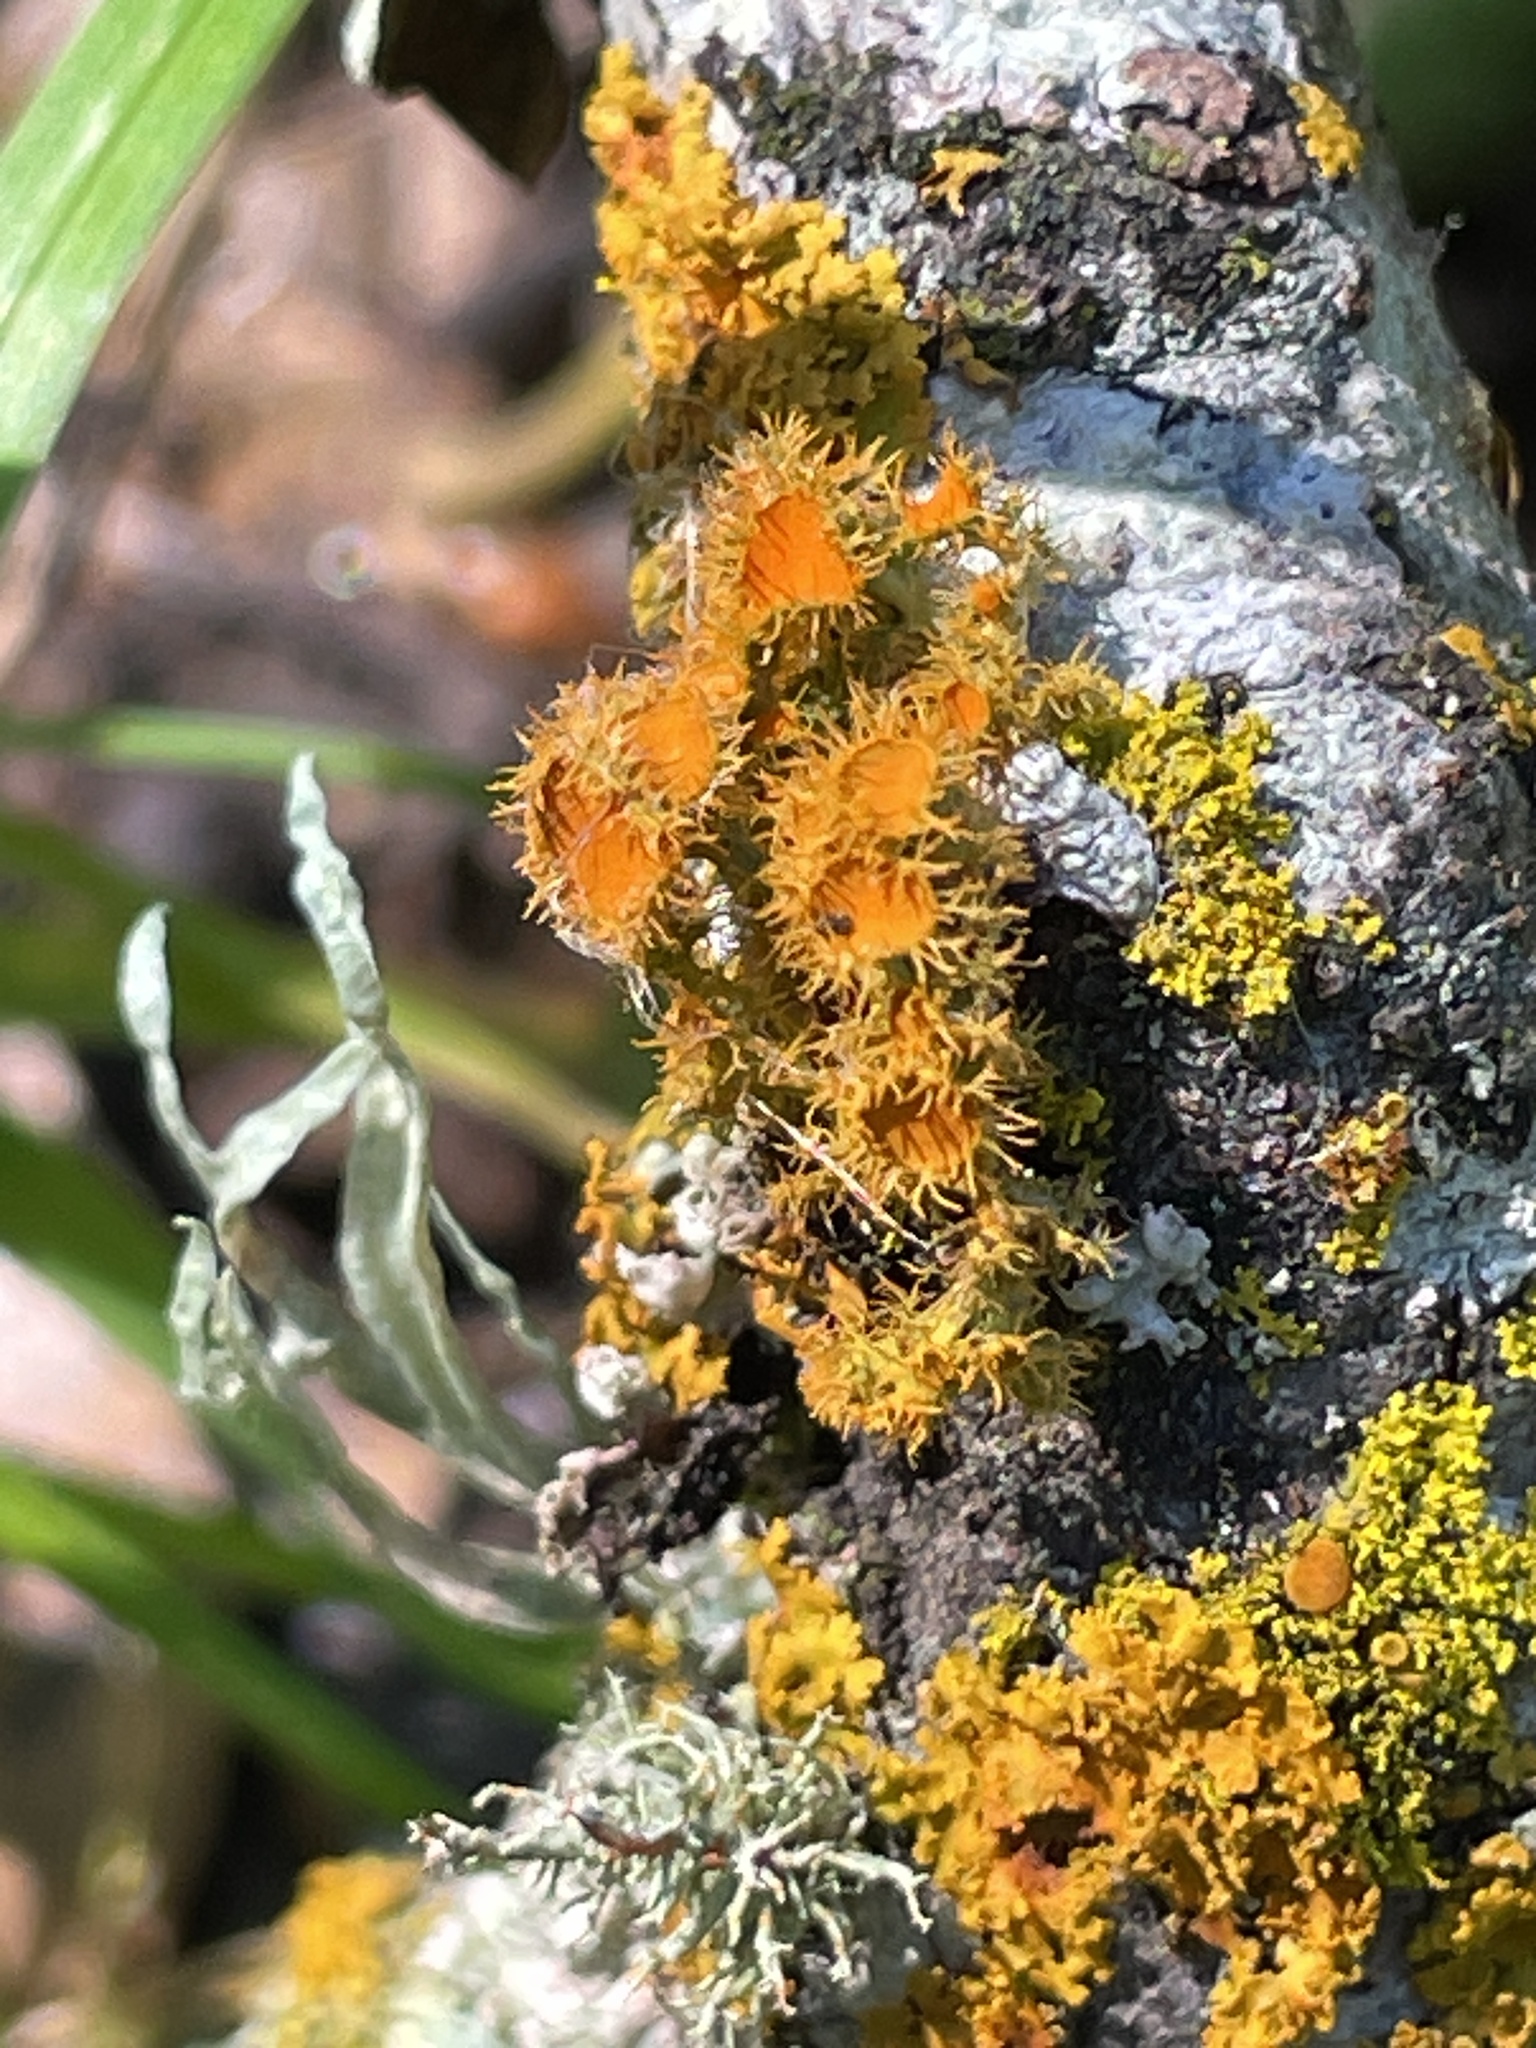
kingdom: Fungi
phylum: Ascomycota
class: Lecanoromycetes
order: Teloschistales
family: Teloschistaceae
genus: Niorma
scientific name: Niorma chrysophthalma
